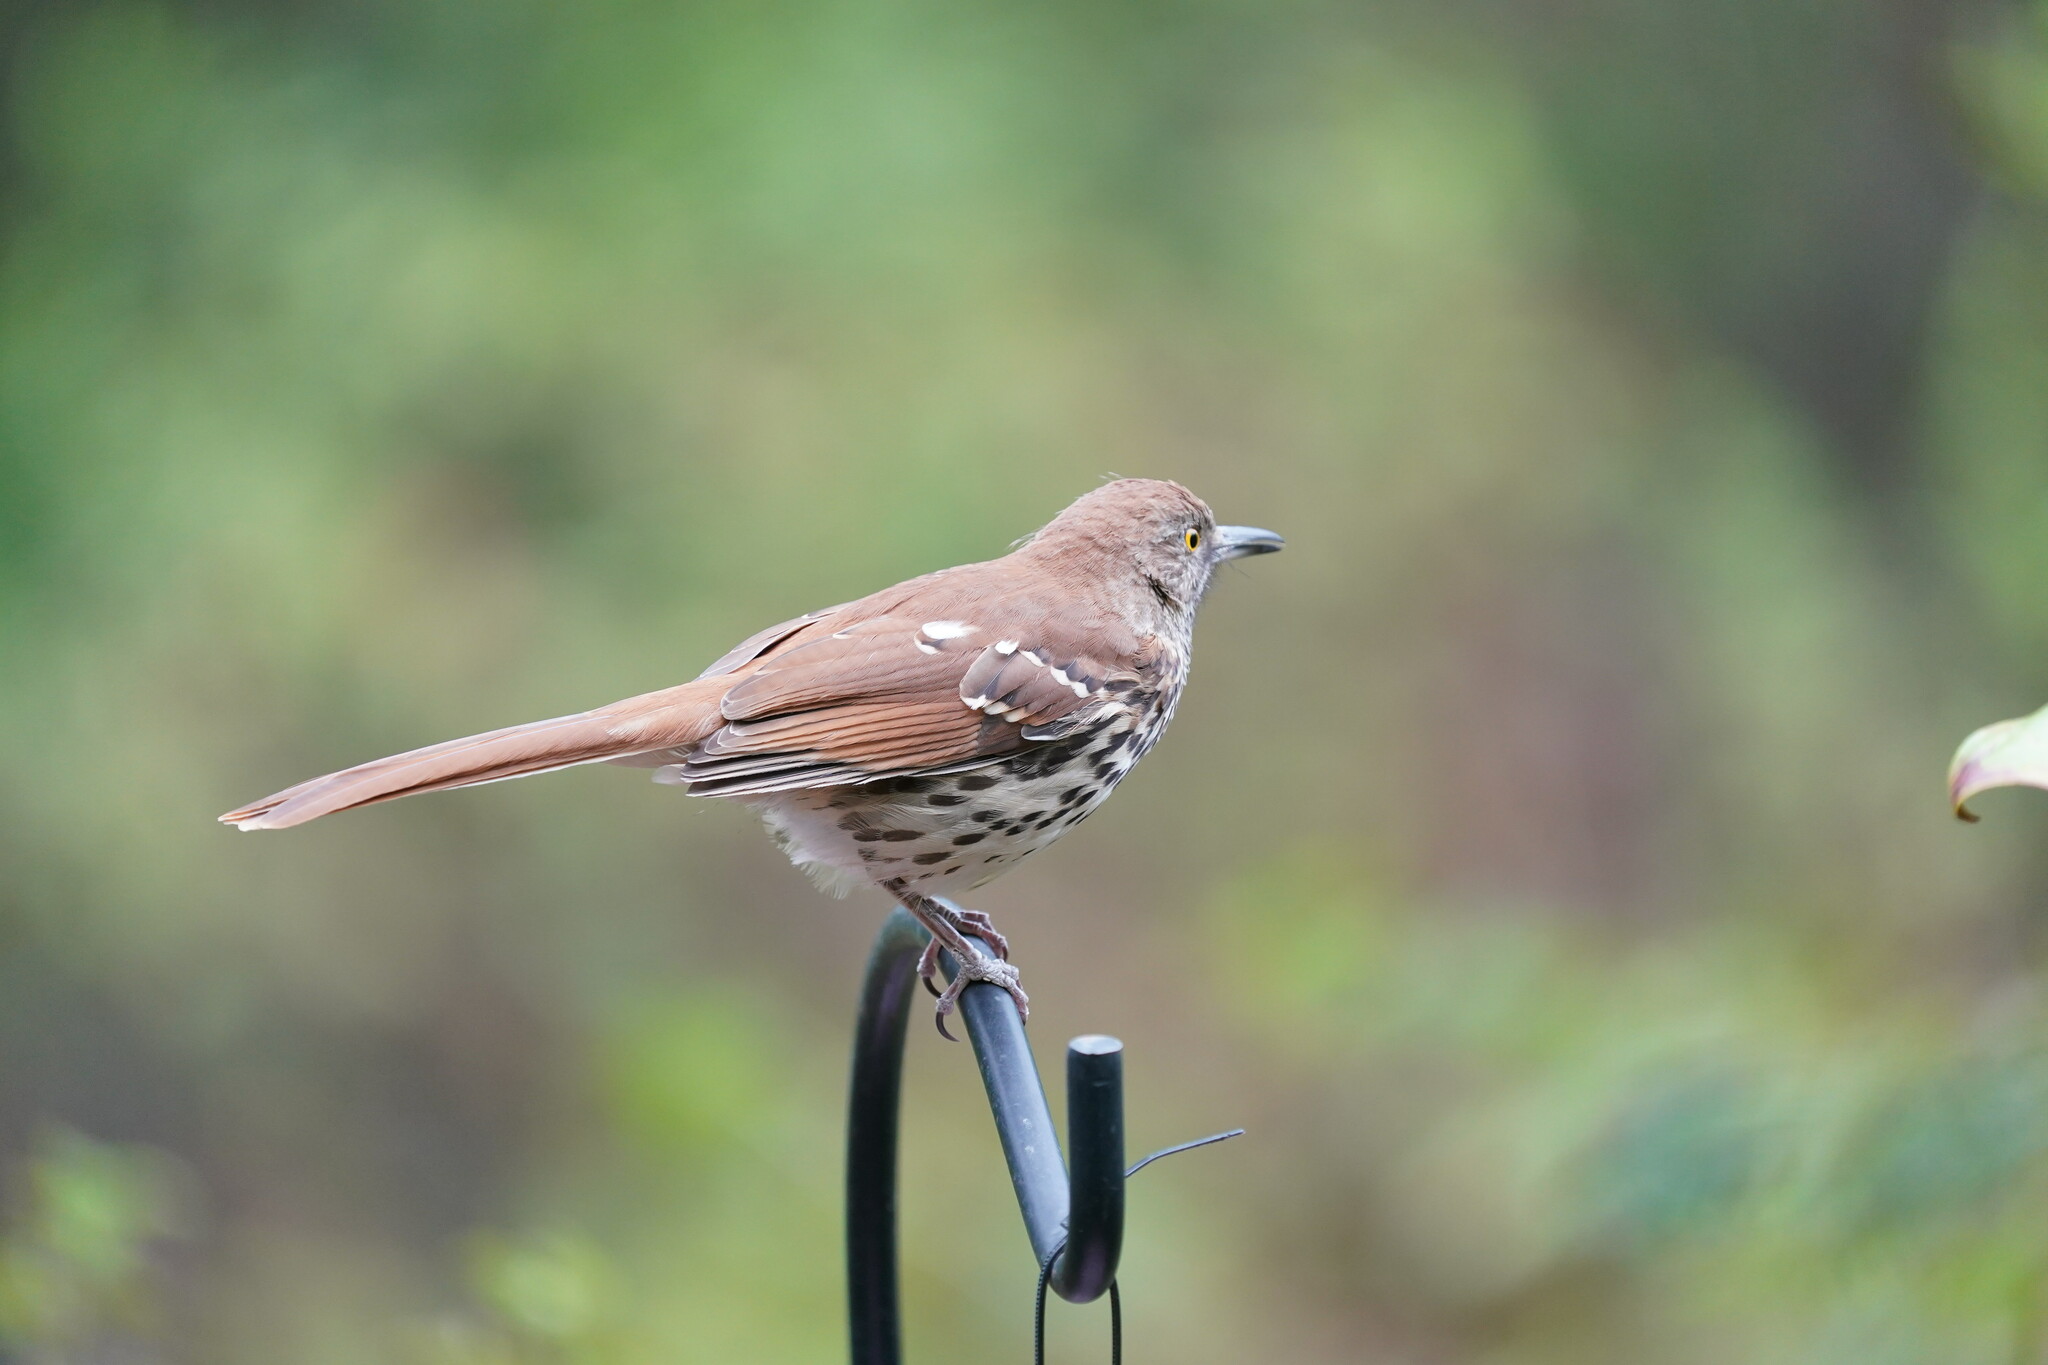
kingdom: Animalia
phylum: Chordata
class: Aves
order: Passeriformes
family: Mimidae
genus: Toxostoma
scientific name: Toxostoma rufum
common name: Brown thrasher
